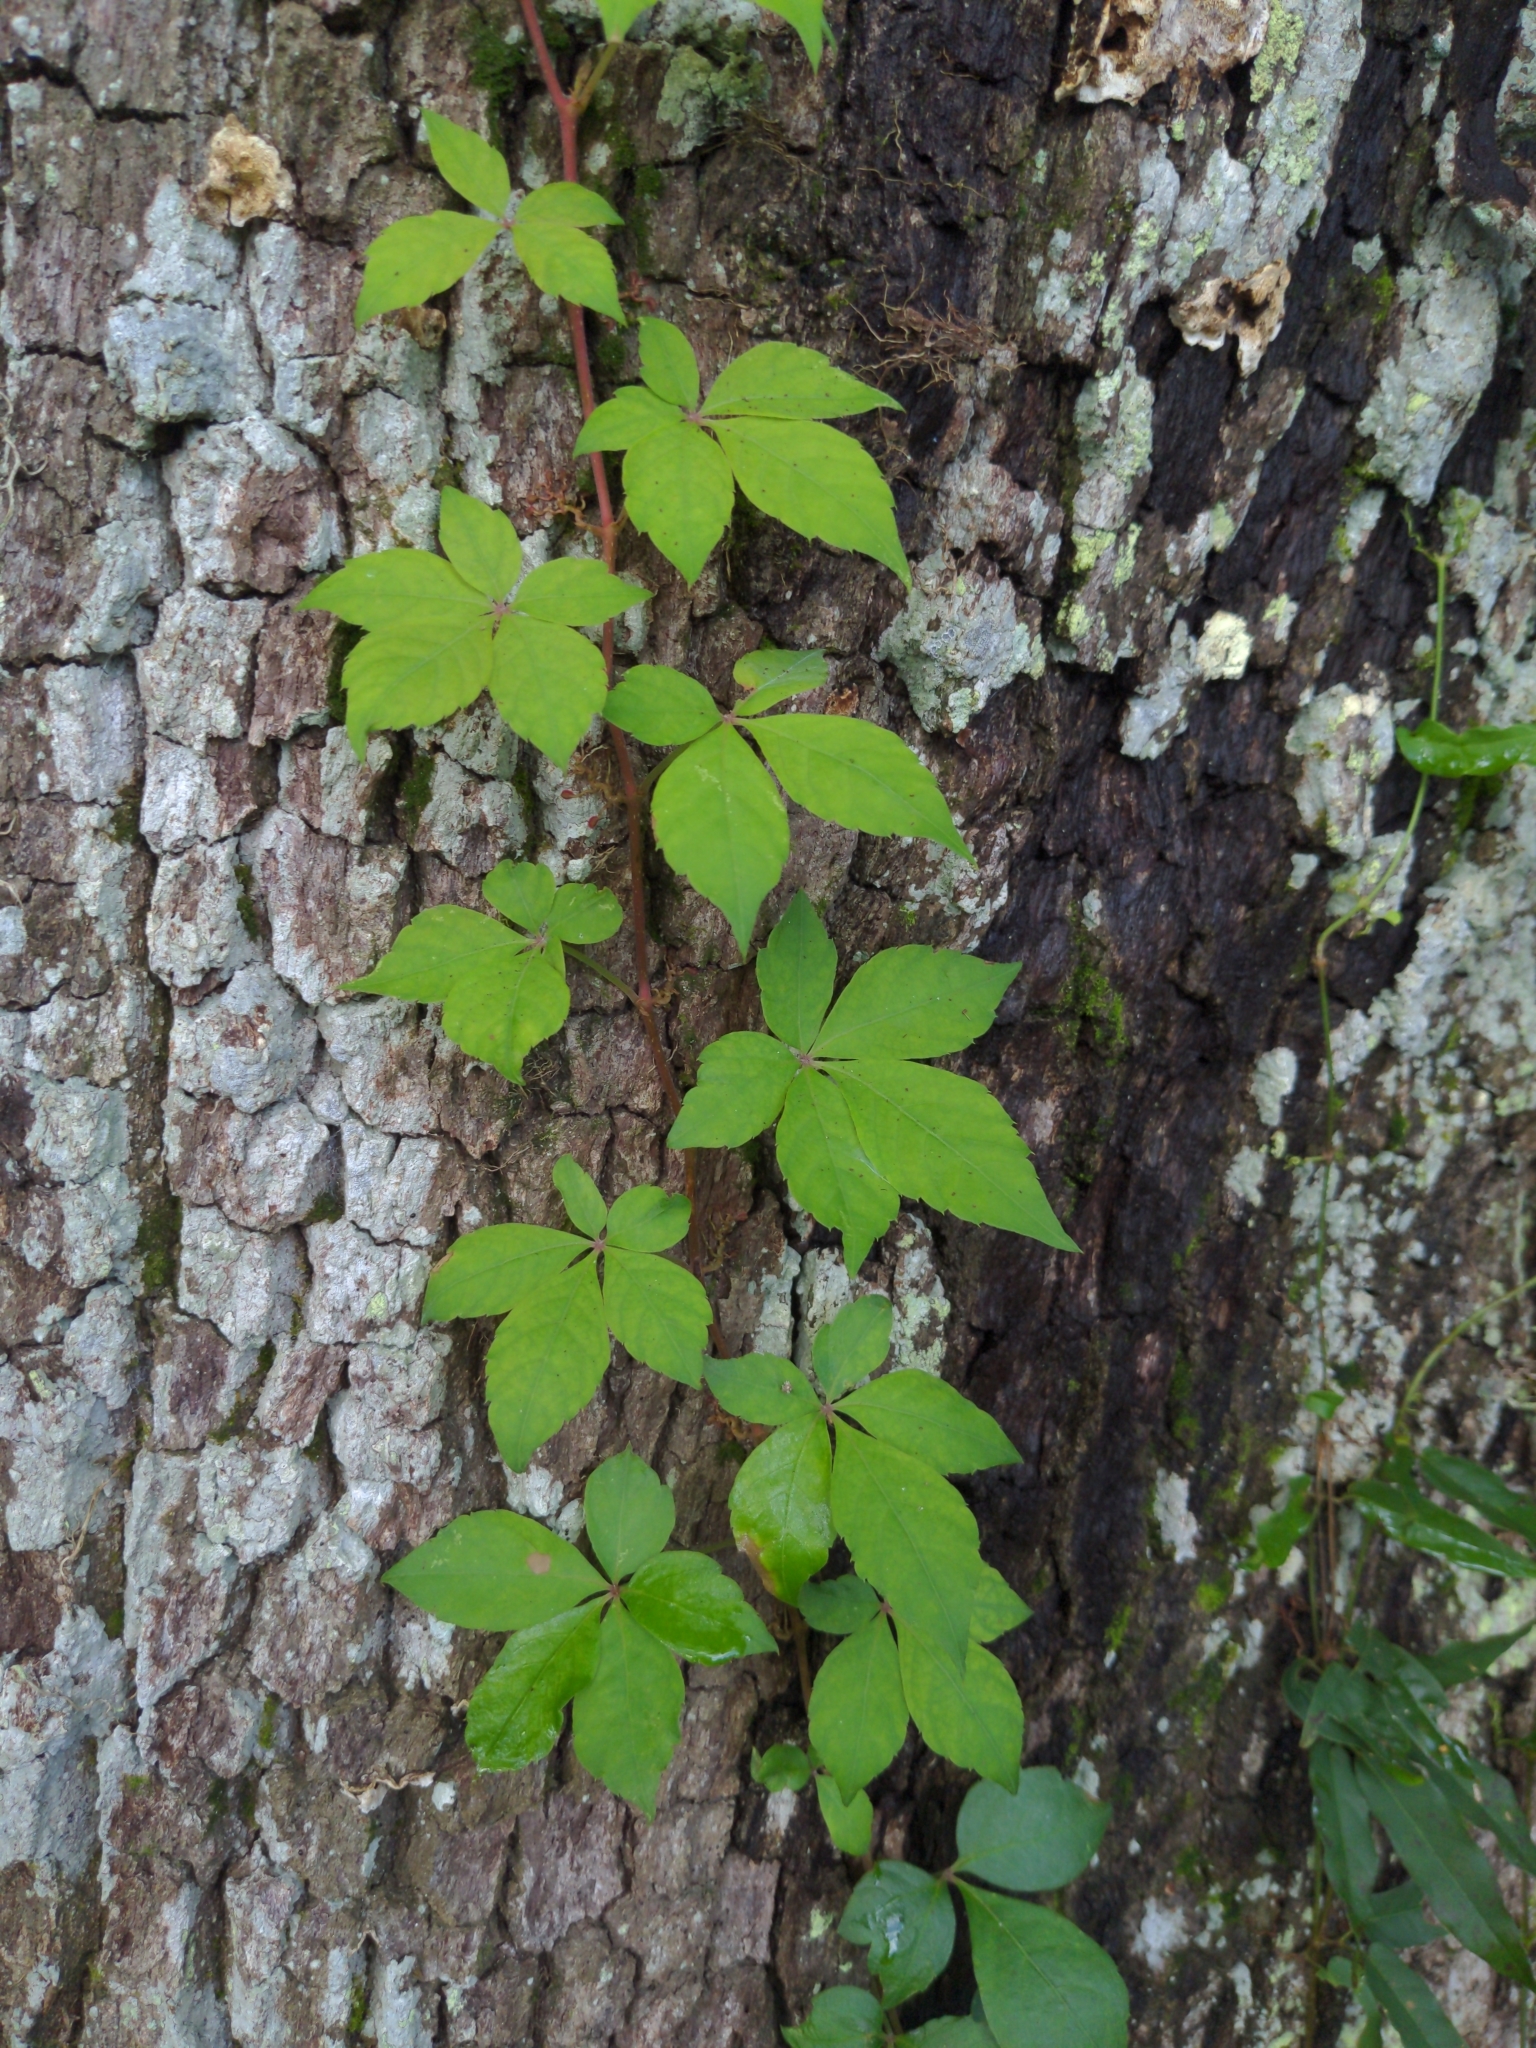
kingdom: Plantae
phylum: Tracheophyta
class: Magnoliopsida
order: Vitales
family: Vitaceae
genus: Parthenocissus
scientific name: Parthenocissus quinquefolia
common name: Virginia-creeper
